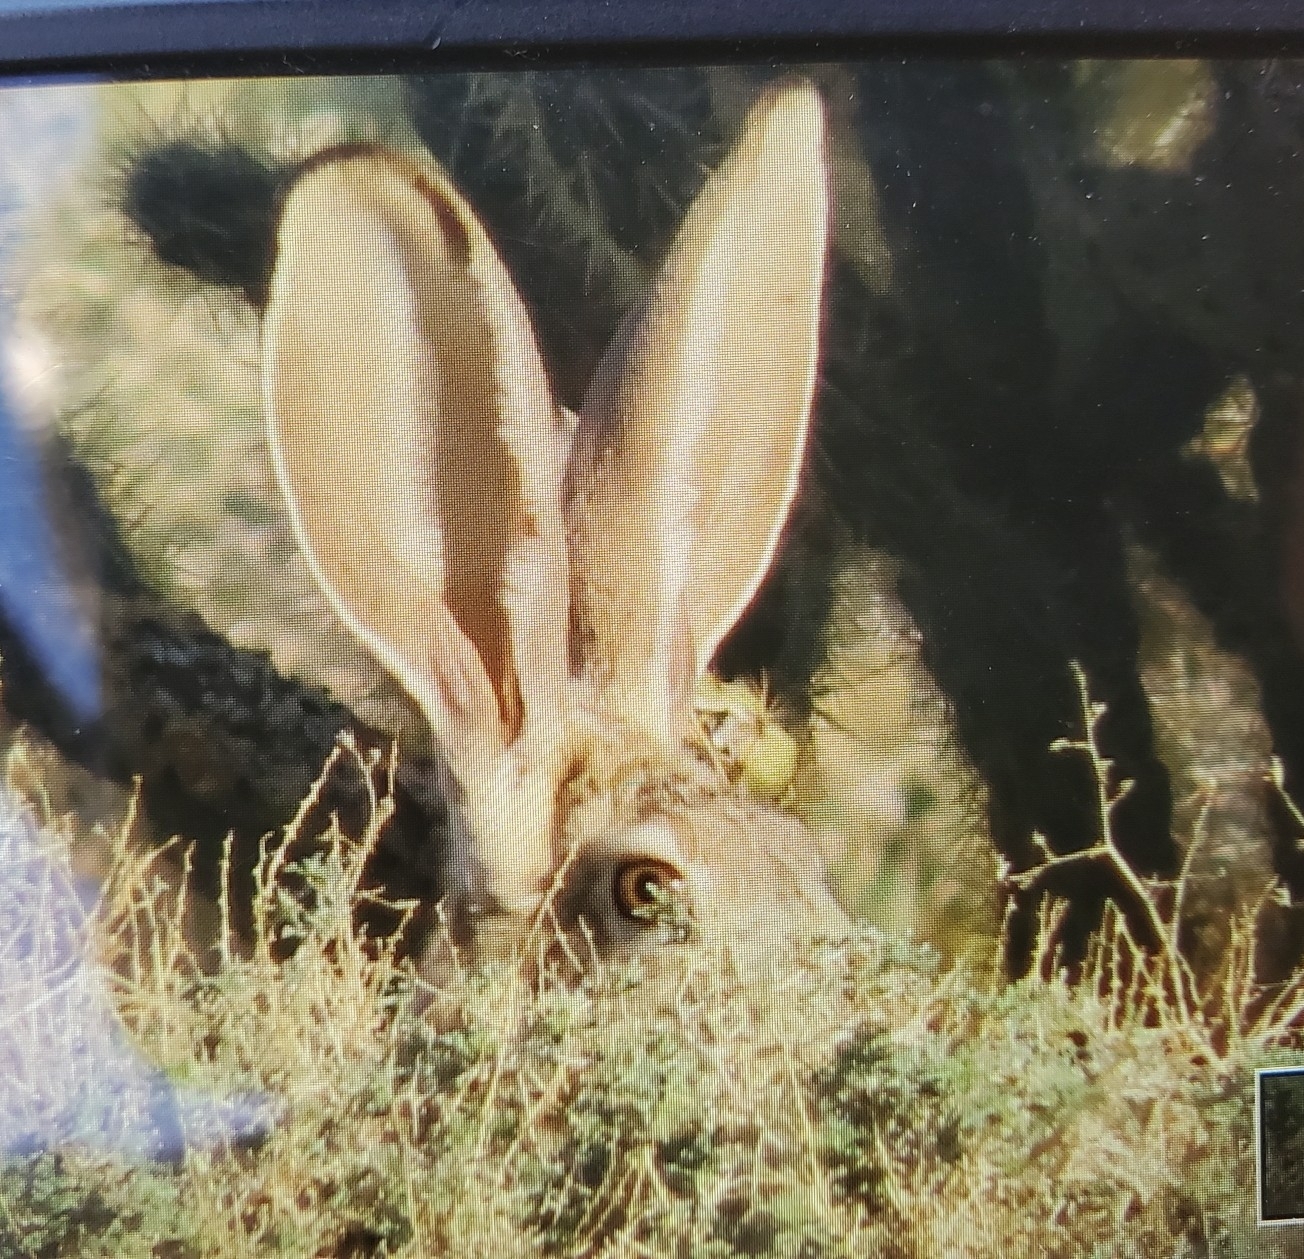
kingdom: Animalia
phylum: Chordata
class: Mammalia
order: Lagomorpha
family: Leporidae
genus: Lepus
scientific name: Lepus californicus
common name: Black-tailed jackrabbit
